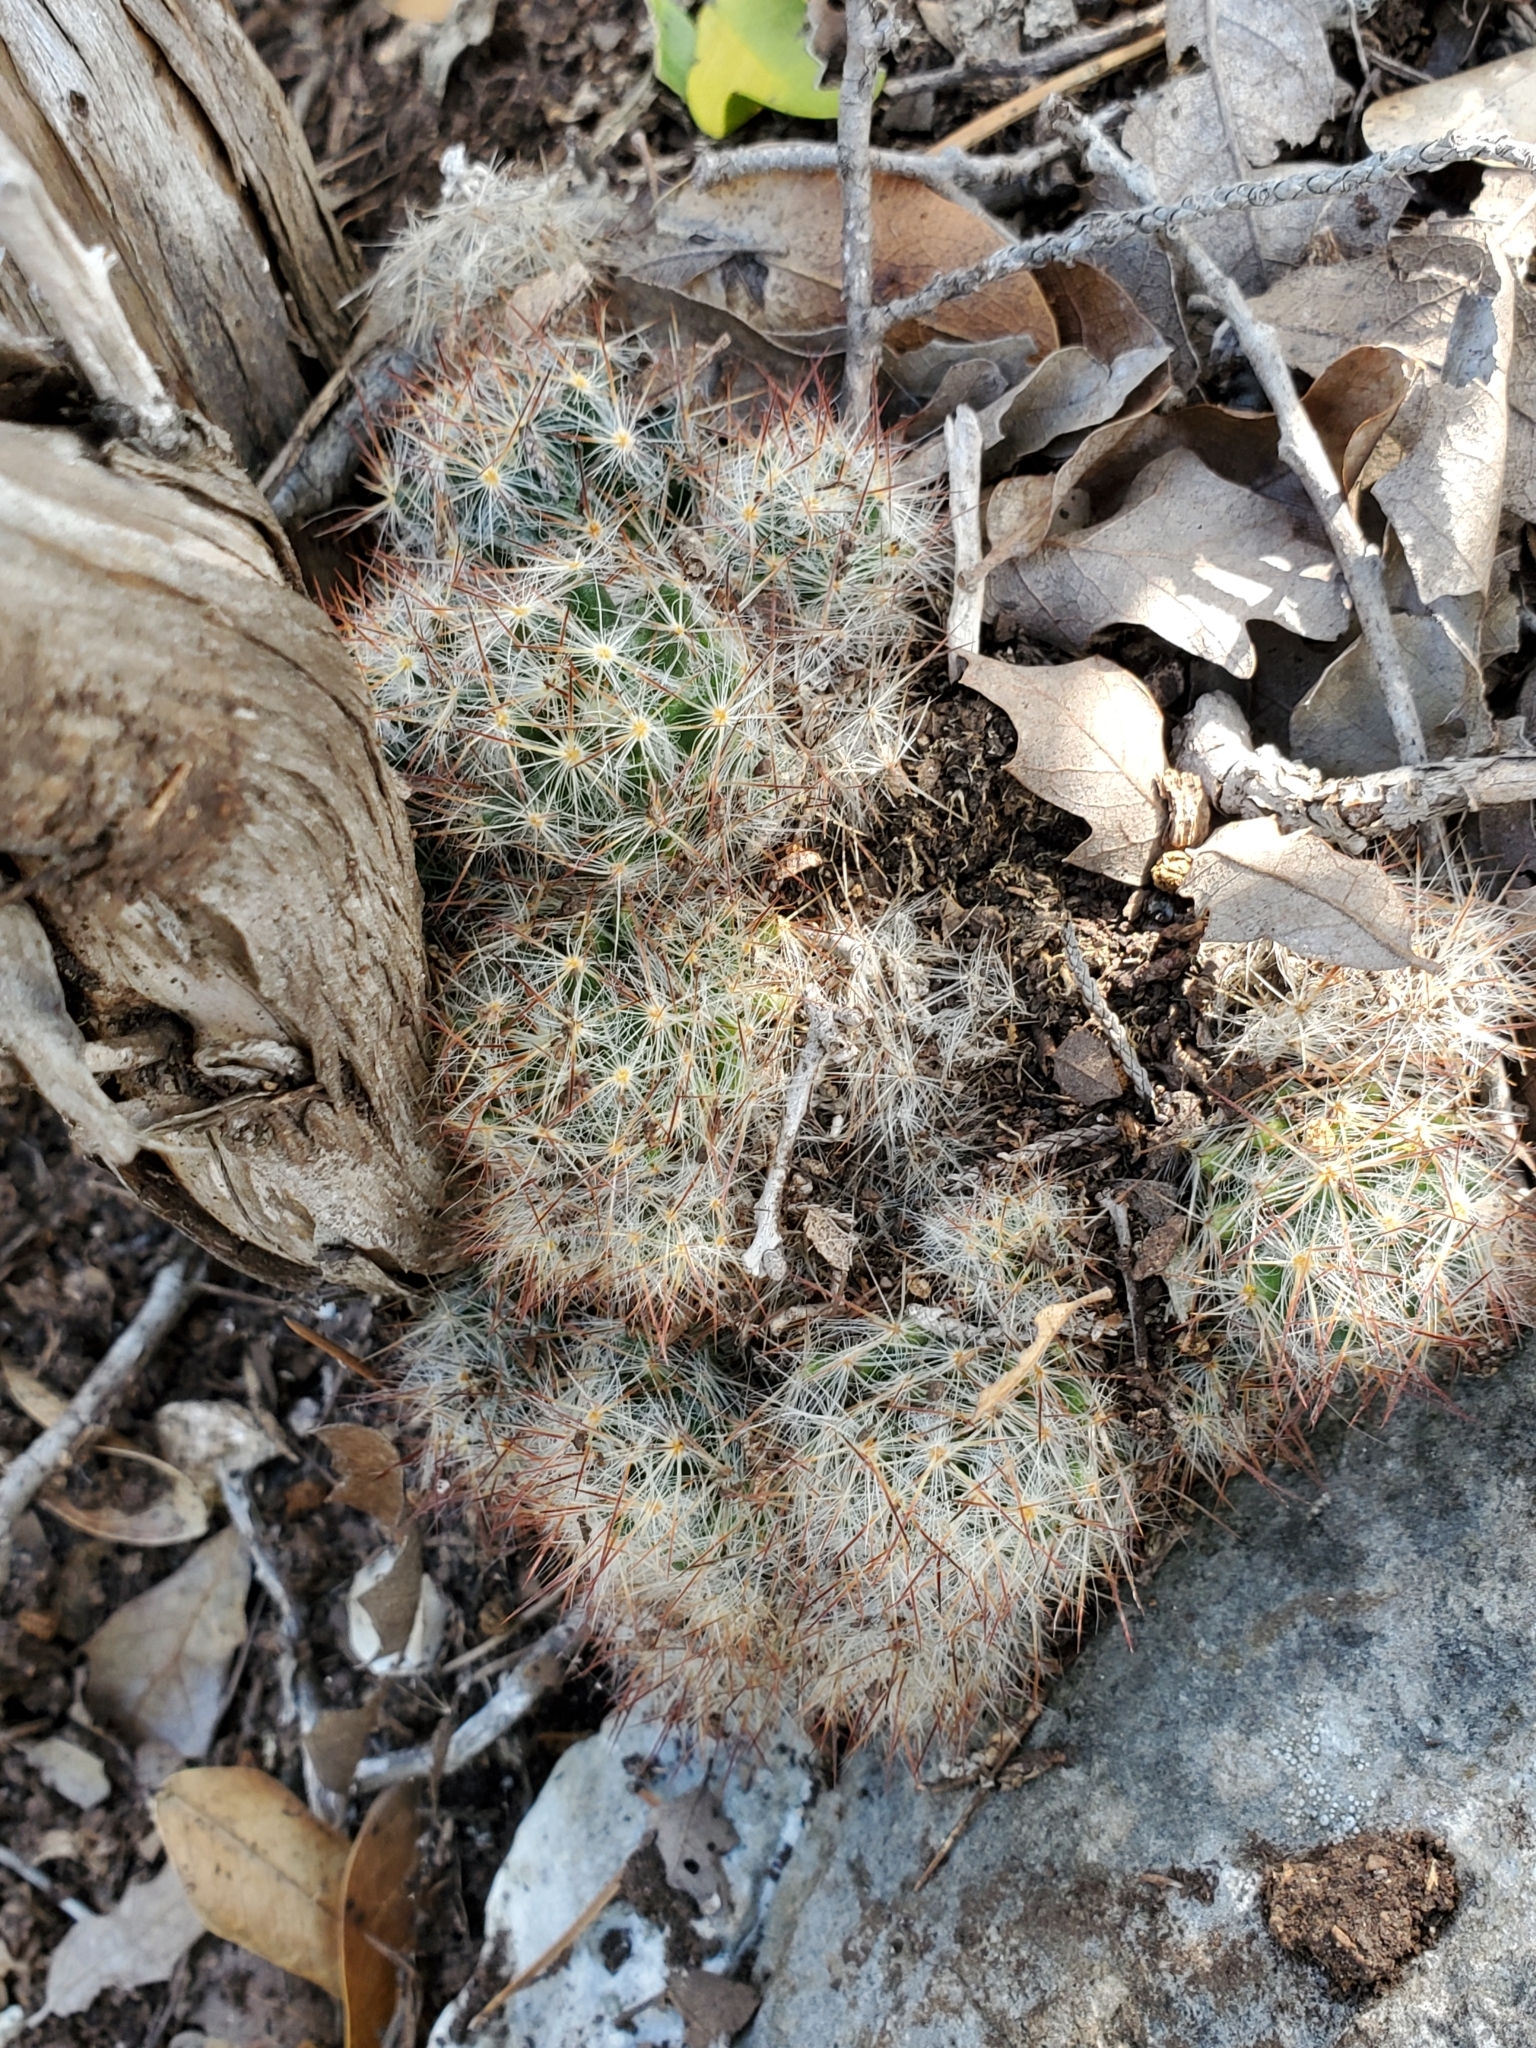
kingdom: Plantae
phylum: Tracheophyta
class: Magnoliopsida
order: Caryophyllales
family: Cactaceae
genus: Mammillaria
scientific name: Mammillaria prolifera
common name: Texas nipple cactus
